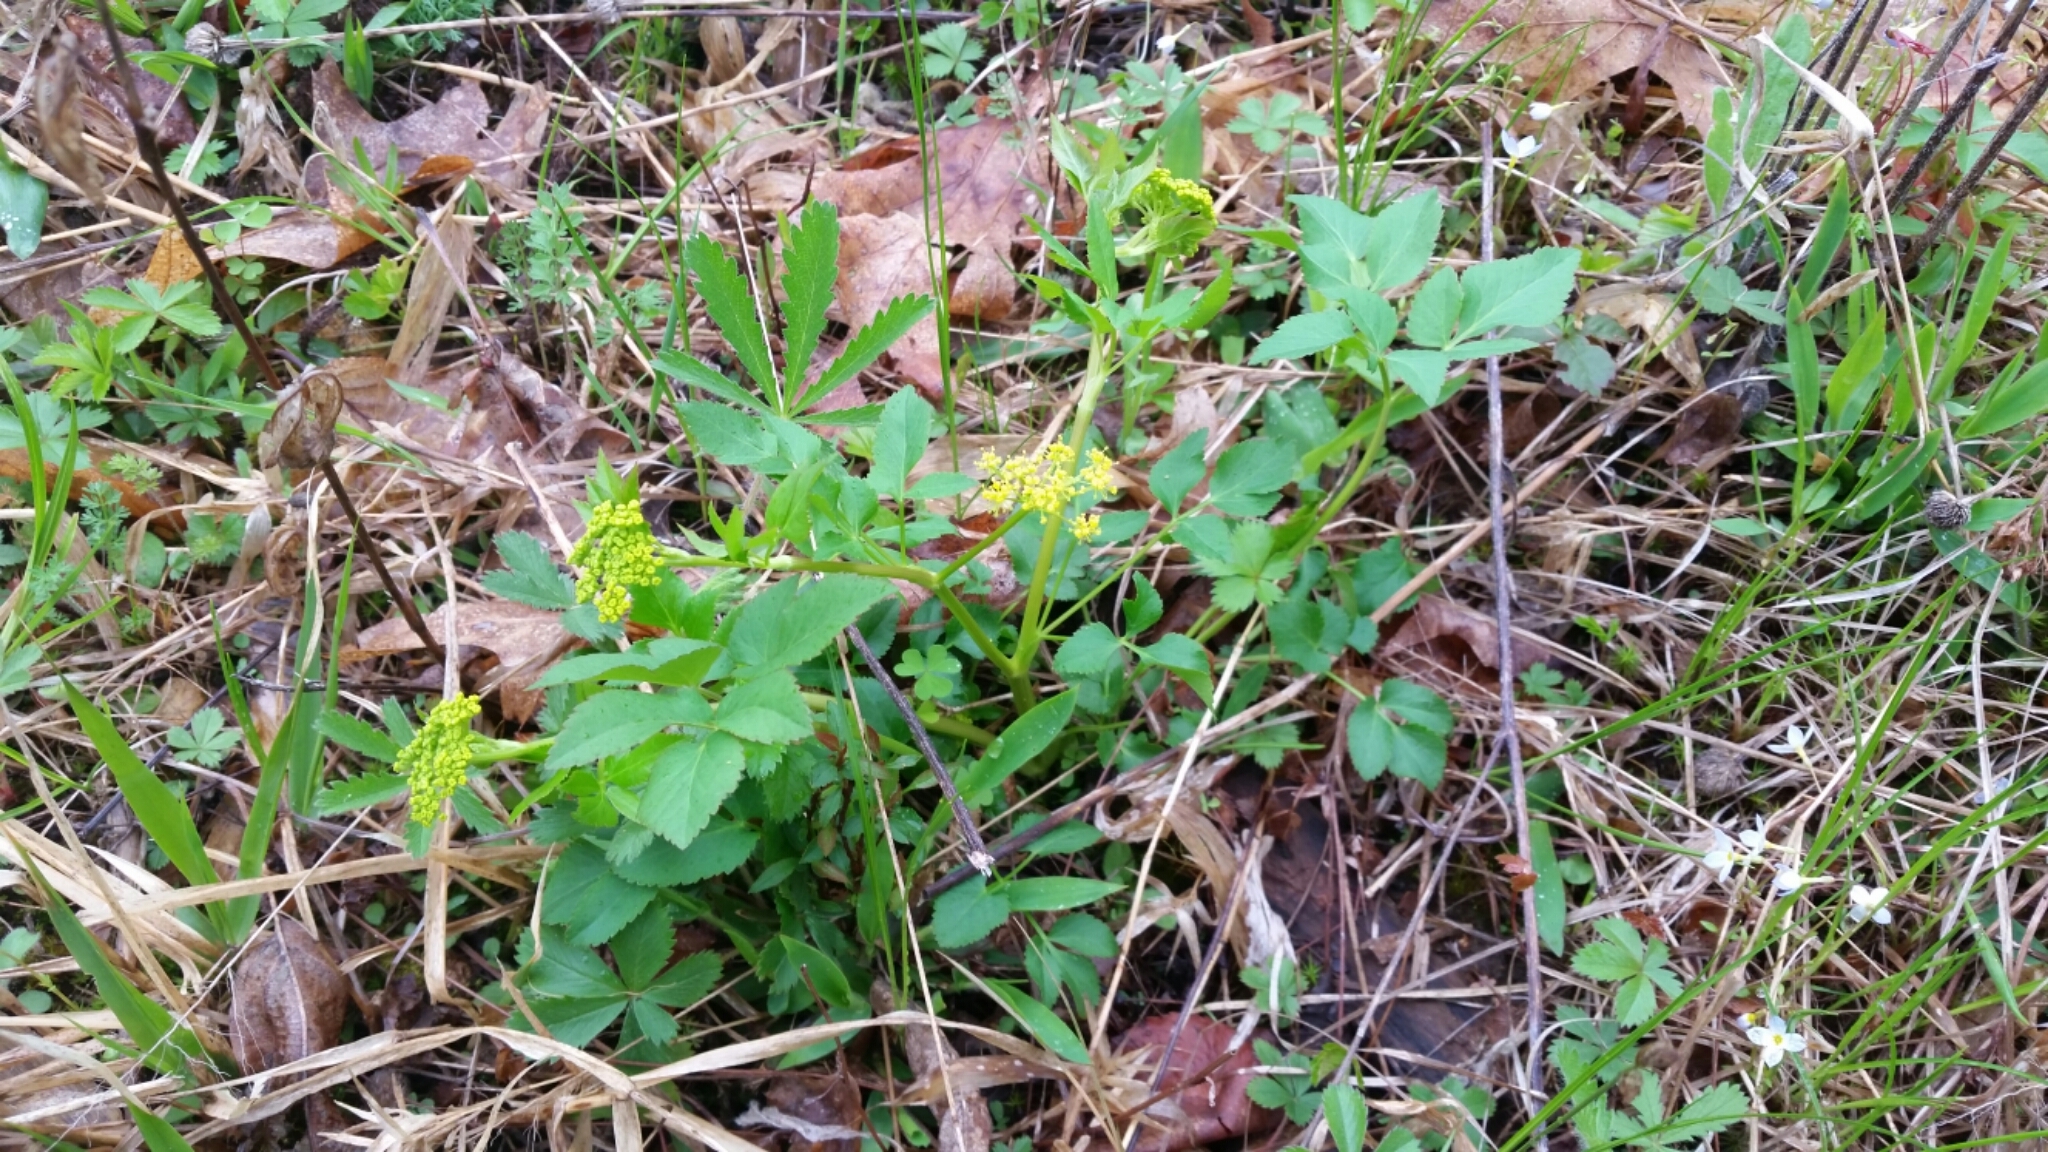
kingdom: Plantae
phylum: Tracheophyta
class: Magnoliopsida
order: Apiales
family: Apiaceae
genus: Zizia
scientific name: Zizia aurea
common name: Golden alexanders
